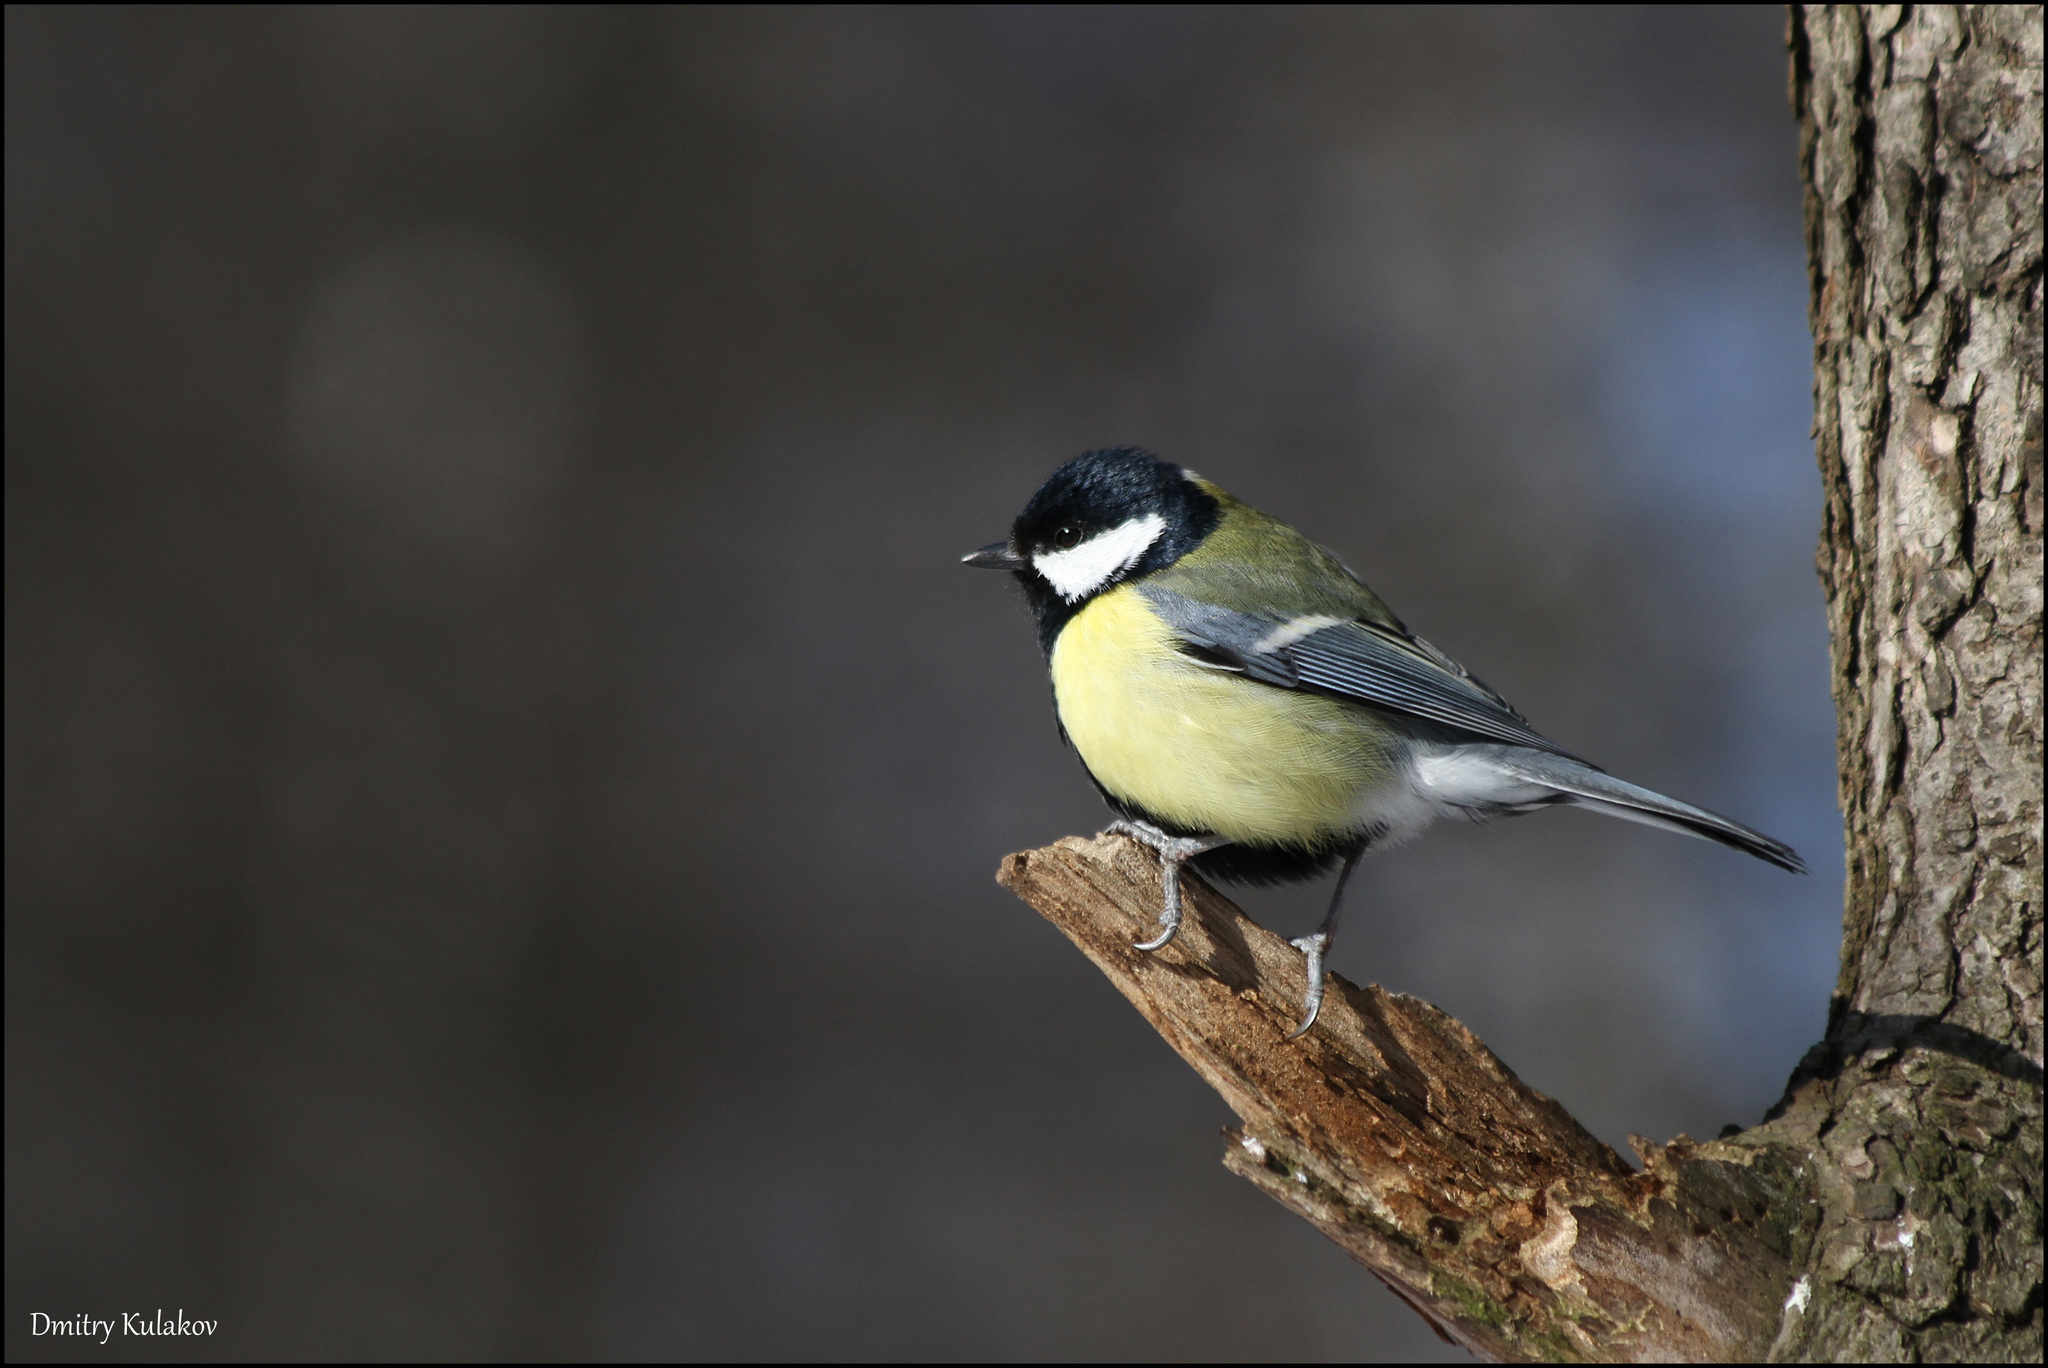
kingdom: Animalia
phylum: Chordata
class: Aves
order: Passeriformes
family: Paridae
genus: Parus
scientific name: Parus major
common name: Great tit
